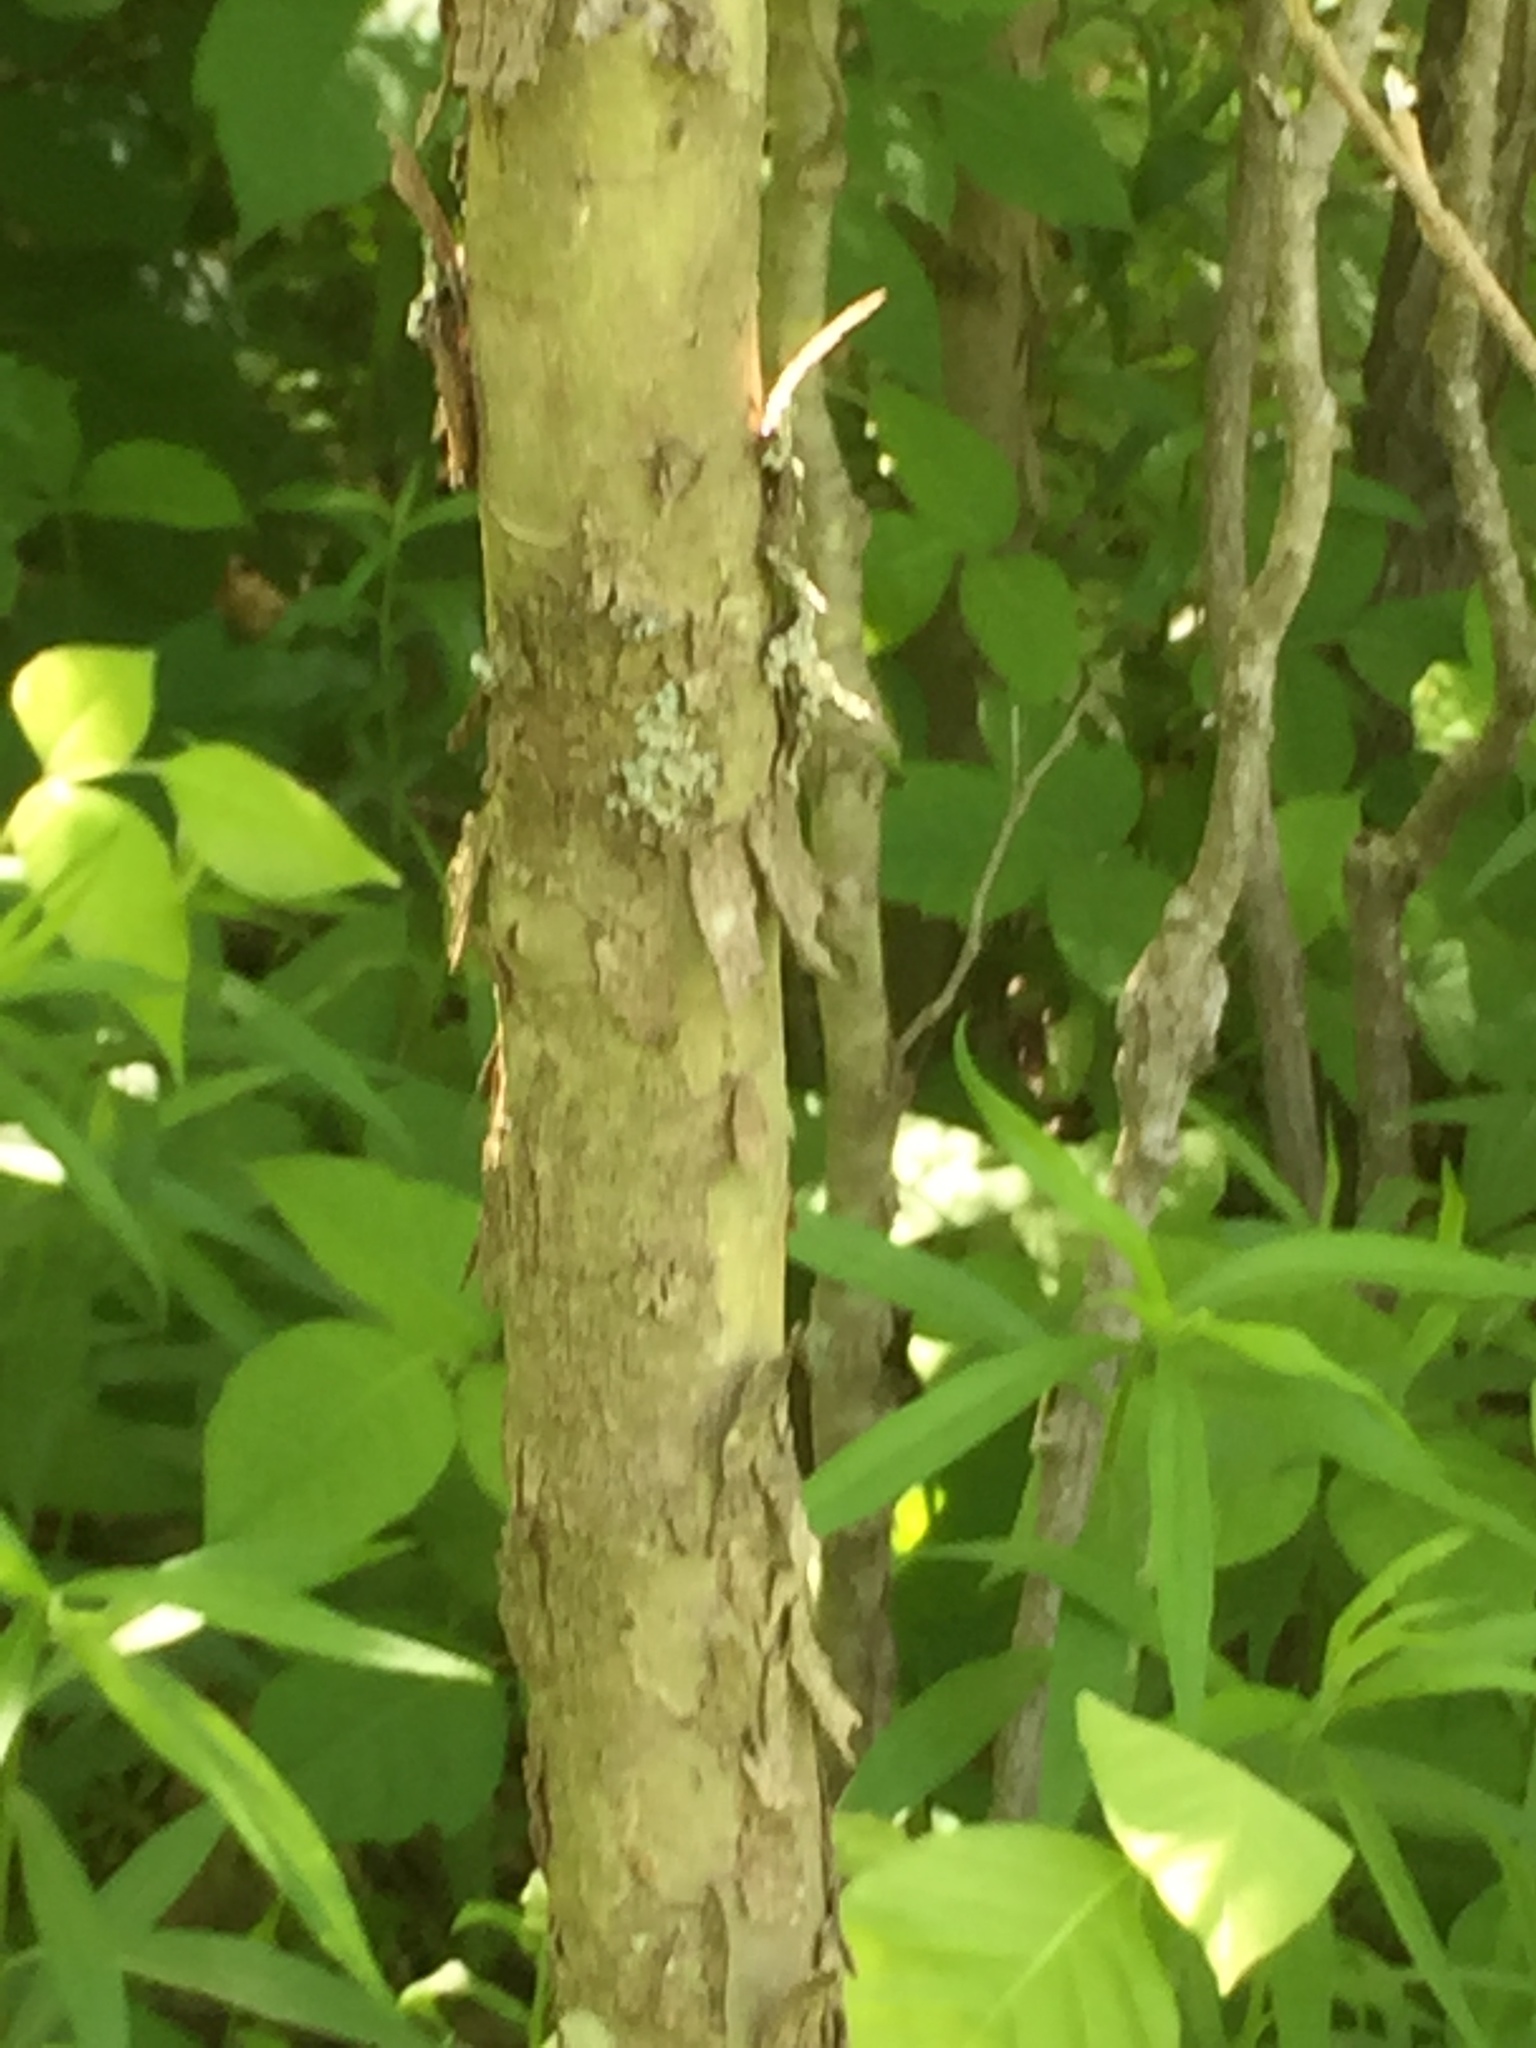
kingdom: Plantae
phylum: Tracheophyta
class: Magnoliopsida
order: Proteales
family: Platanaceae
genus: Platanus
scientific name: Platanus occidentalis
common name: American sycamore
